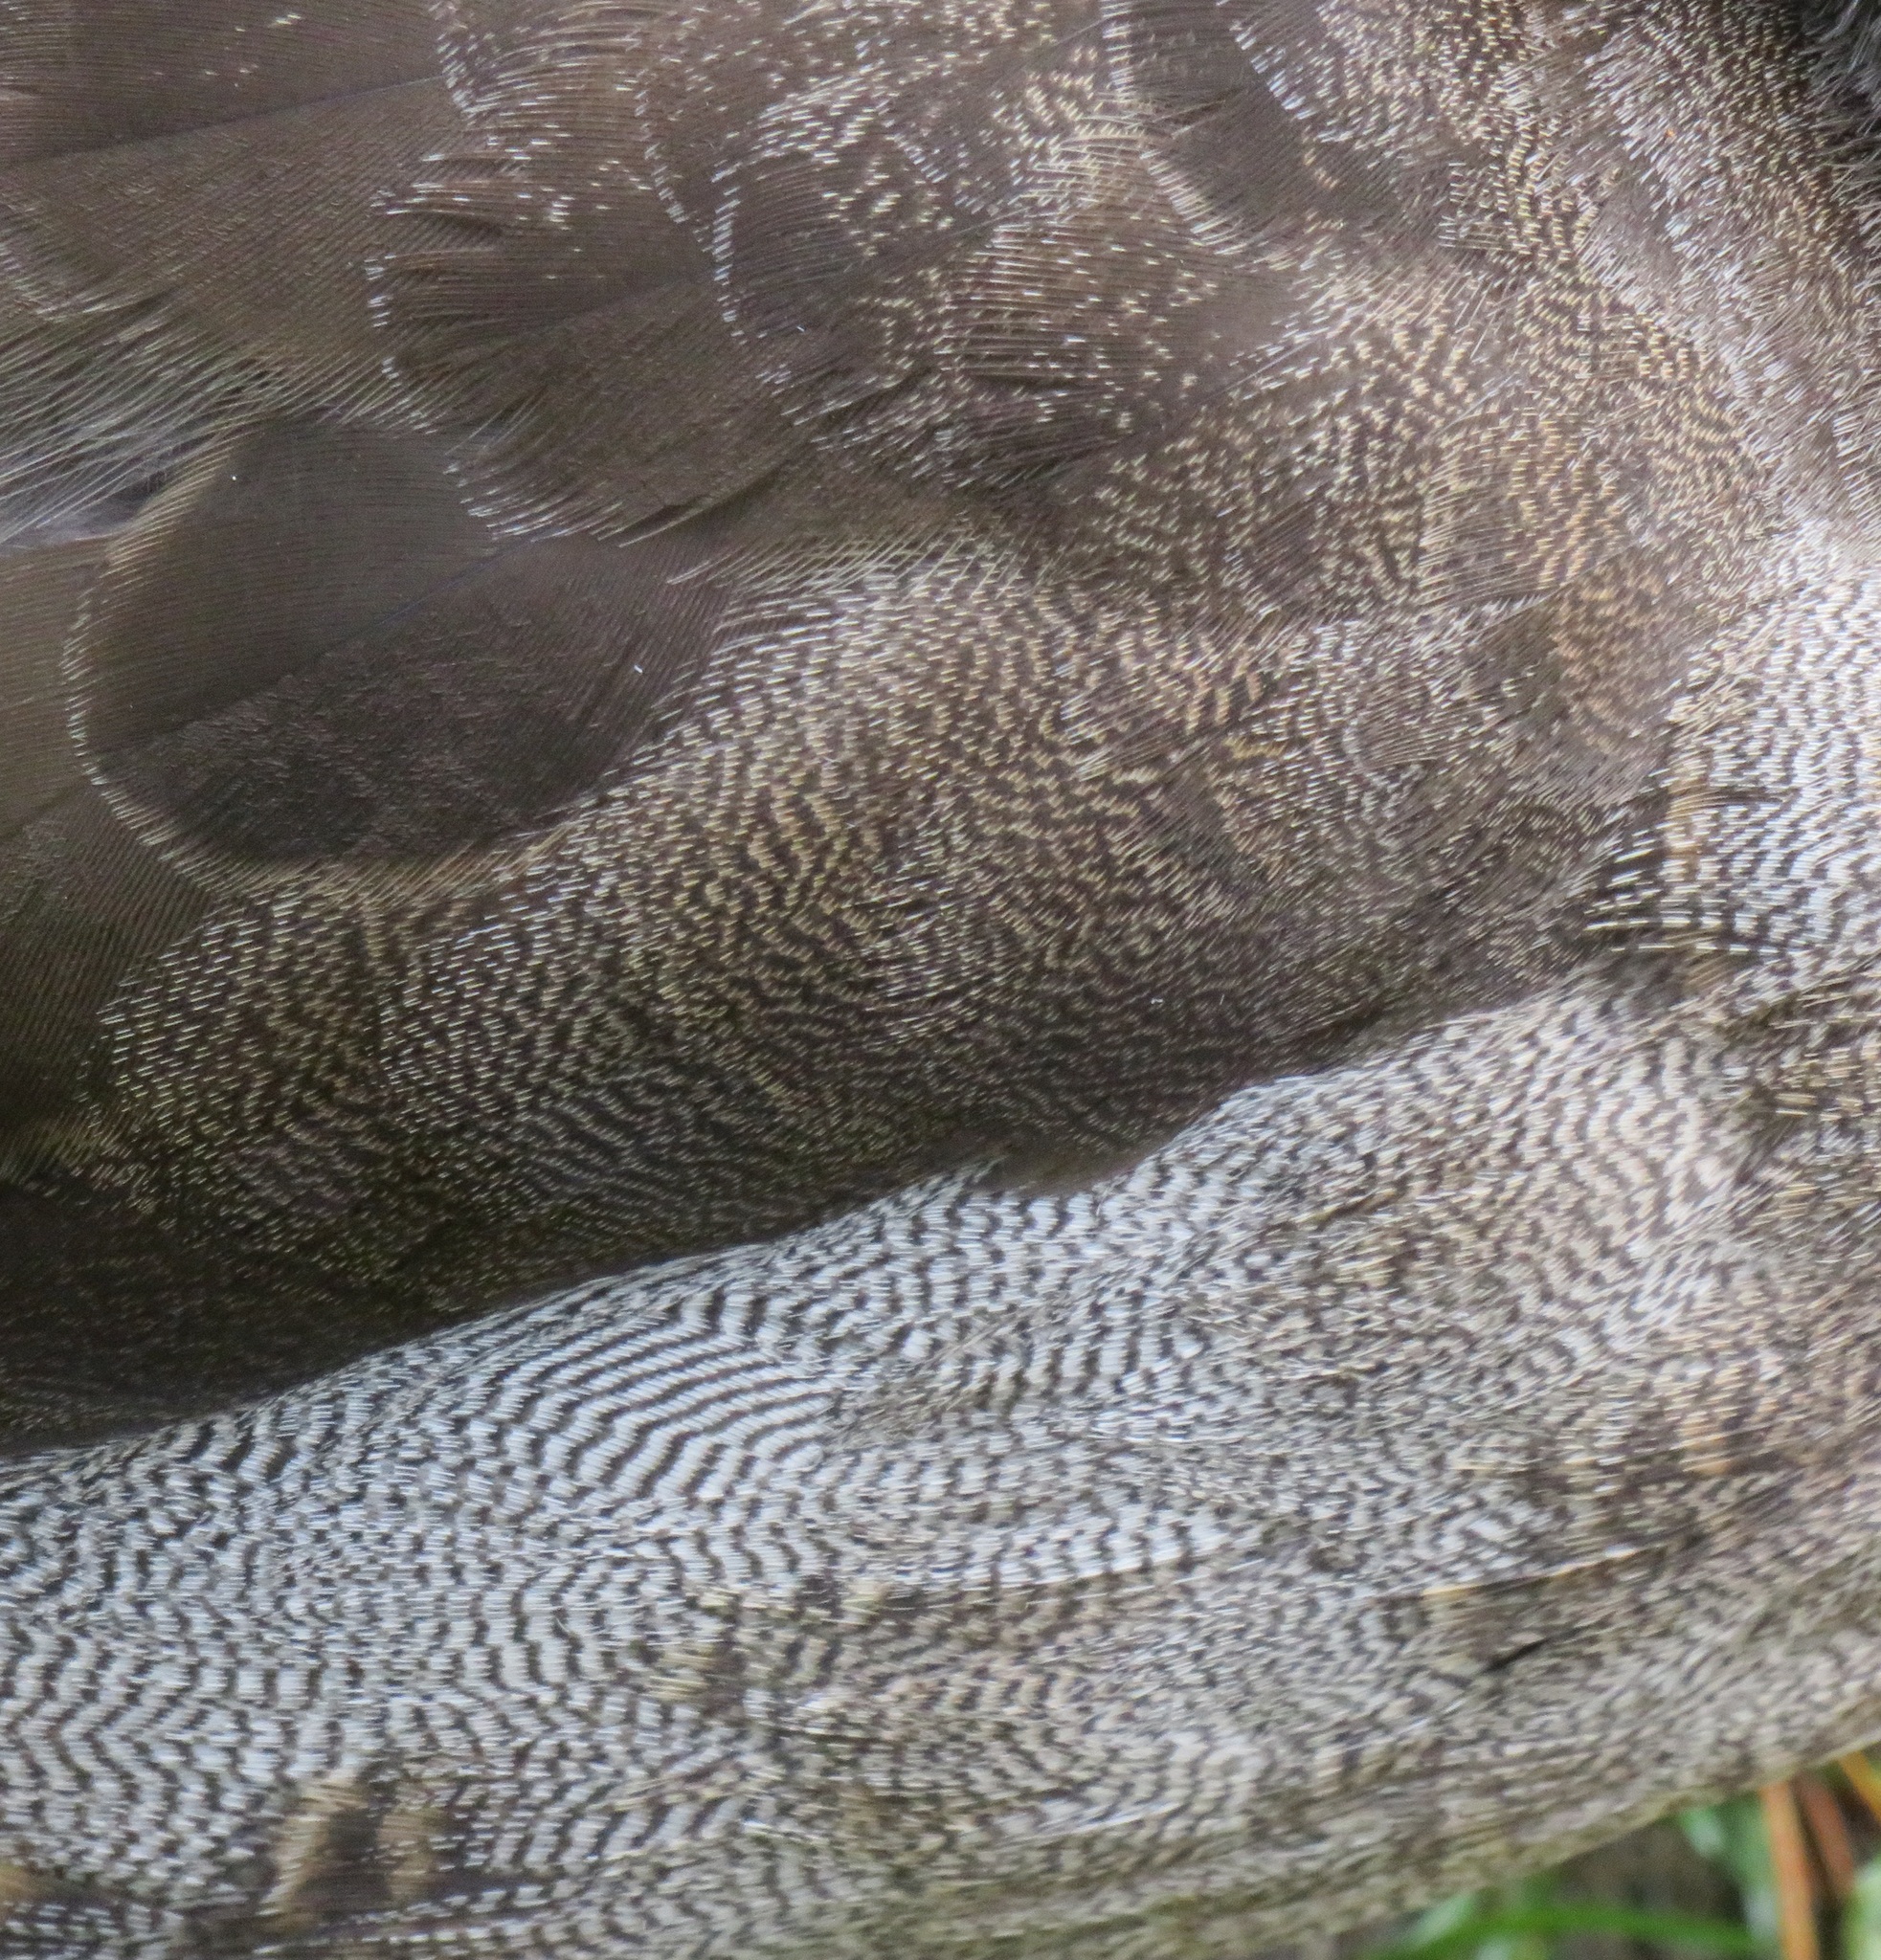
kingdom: Animalia
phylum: Chordata
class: Aves
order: Anseriformes
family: Anatidae
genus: Anas
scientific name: Anas
